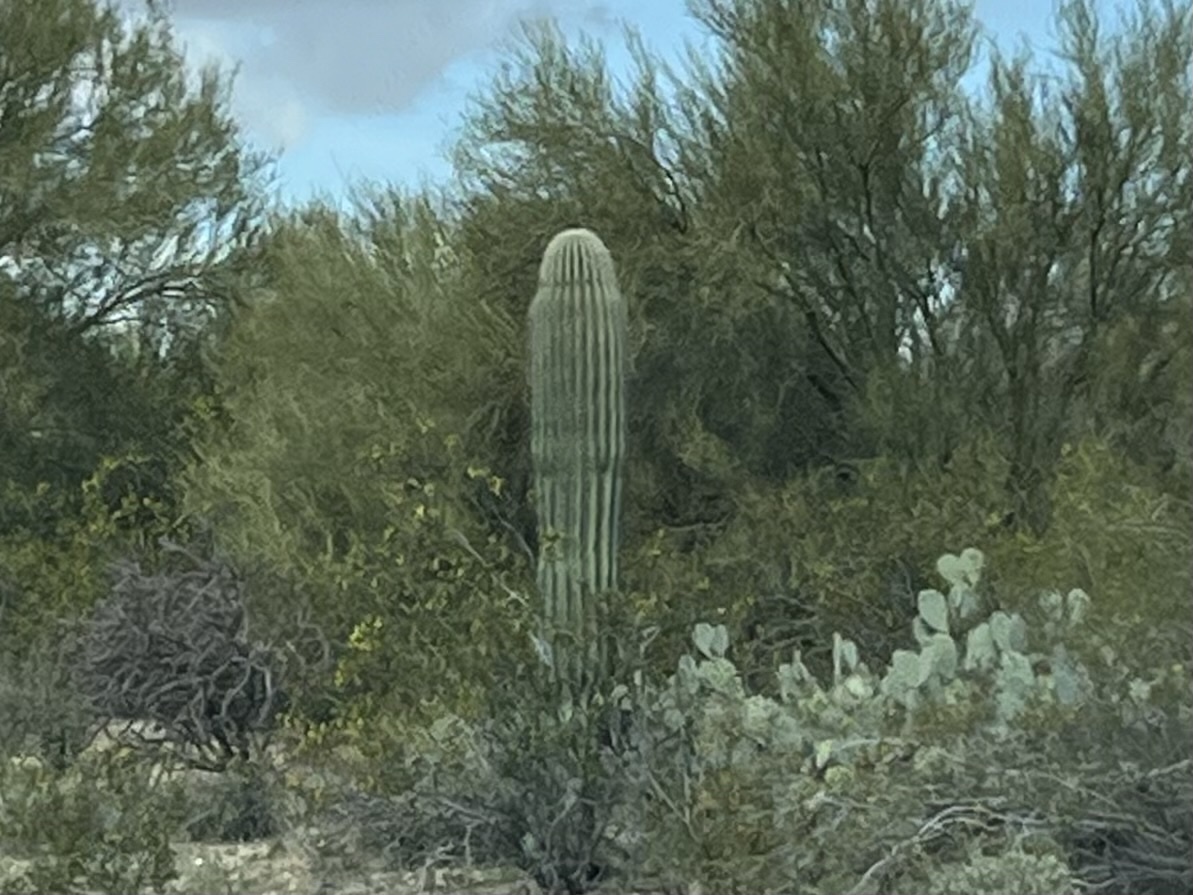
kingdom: Plantae
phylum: Tracheophyta
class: Magnoliopsida
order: Caryophyllales
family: Cactaceae
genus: Carnegiea
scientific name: Carnegiea gigantea
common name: Saguaro
